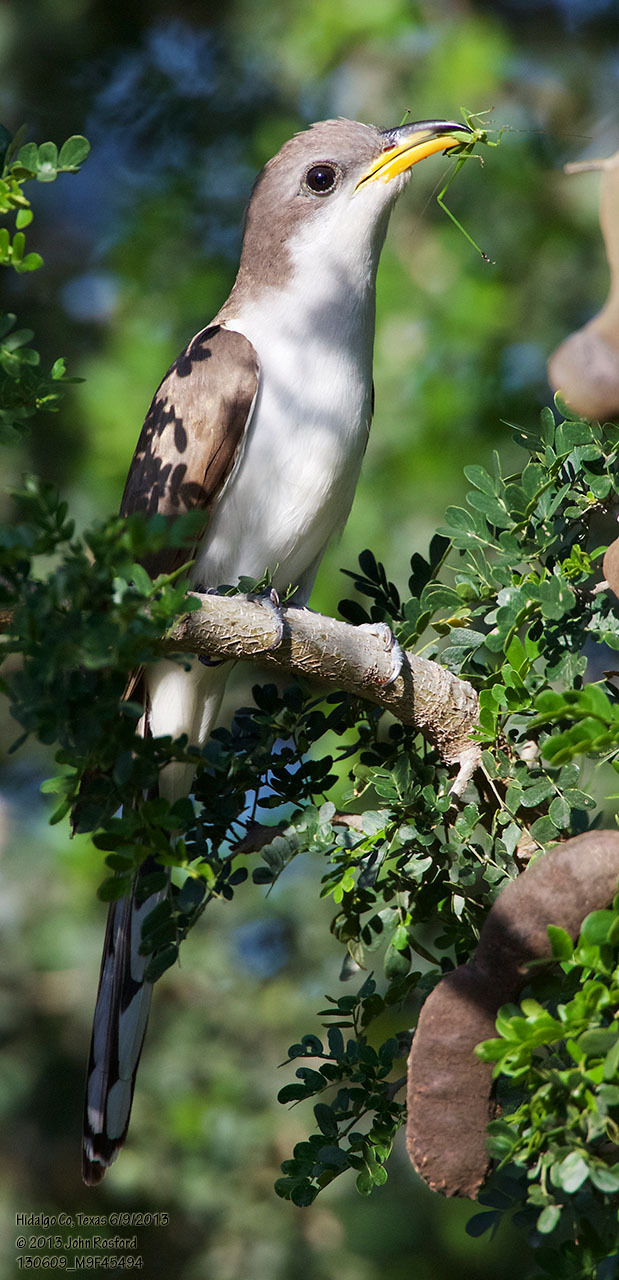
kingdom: Animalia
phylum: Chordata
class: Aves
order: Cuculiformes
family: Cuculidae
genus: Coccyzus
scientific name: Coccyzus americanus
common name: Yellow-billed cuckoo
